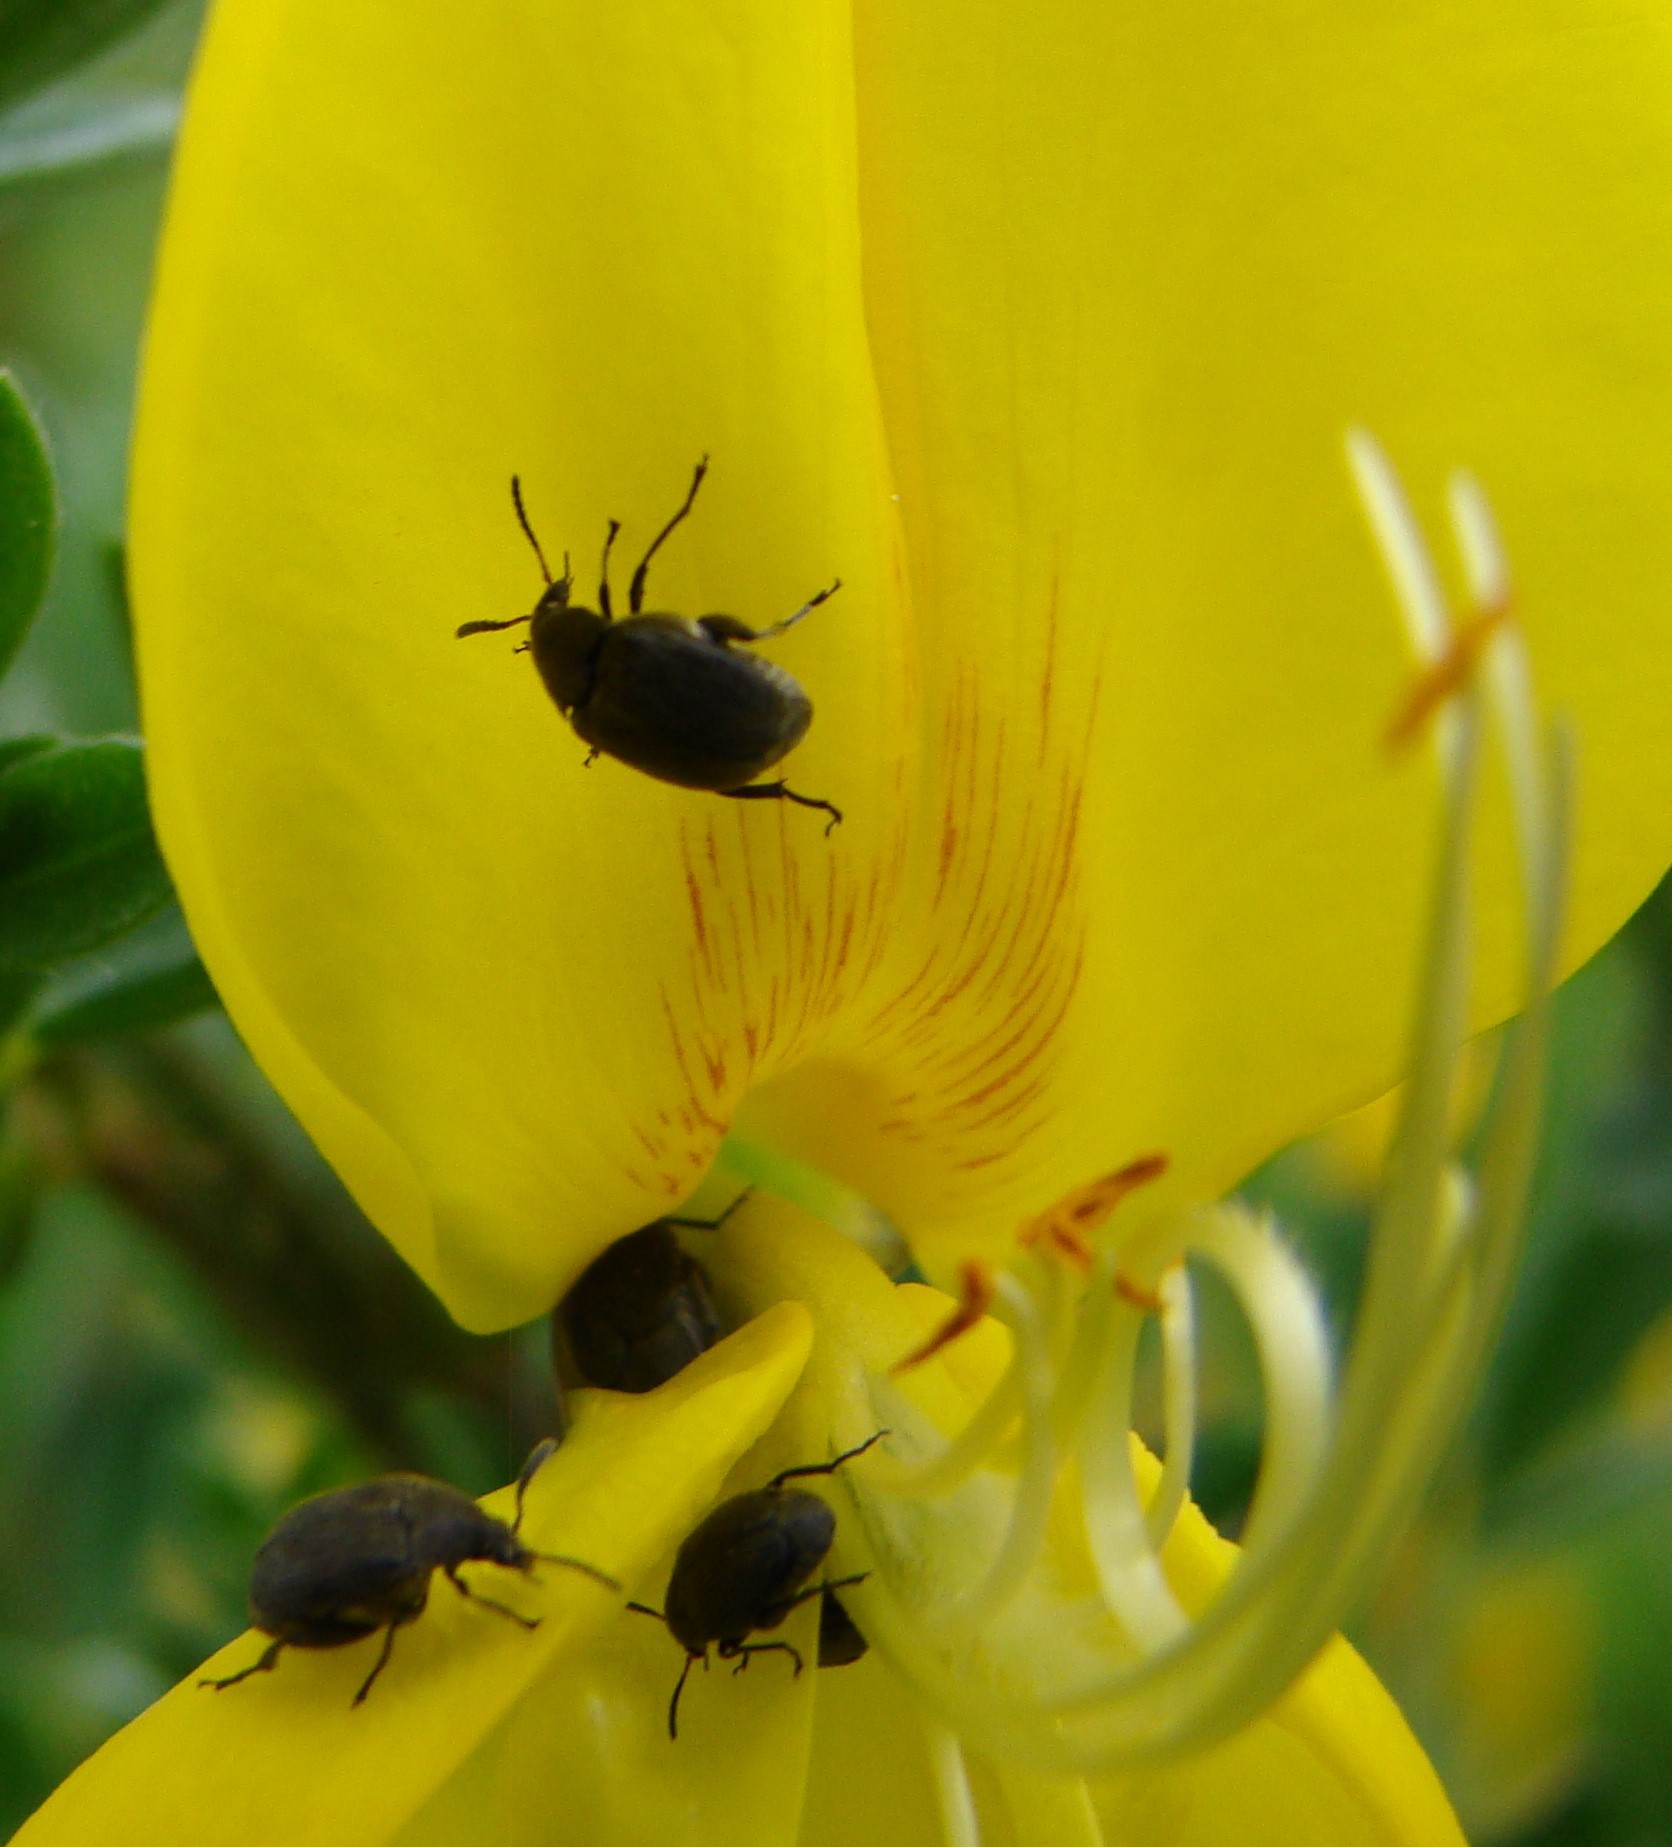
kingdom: Animalia
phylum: Arthropoda
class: Insecta
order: Coleoptera
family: Chrysomelidae
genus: Bruchidius
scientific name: Bruchidius villosus
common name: Scotch broom bruchid
